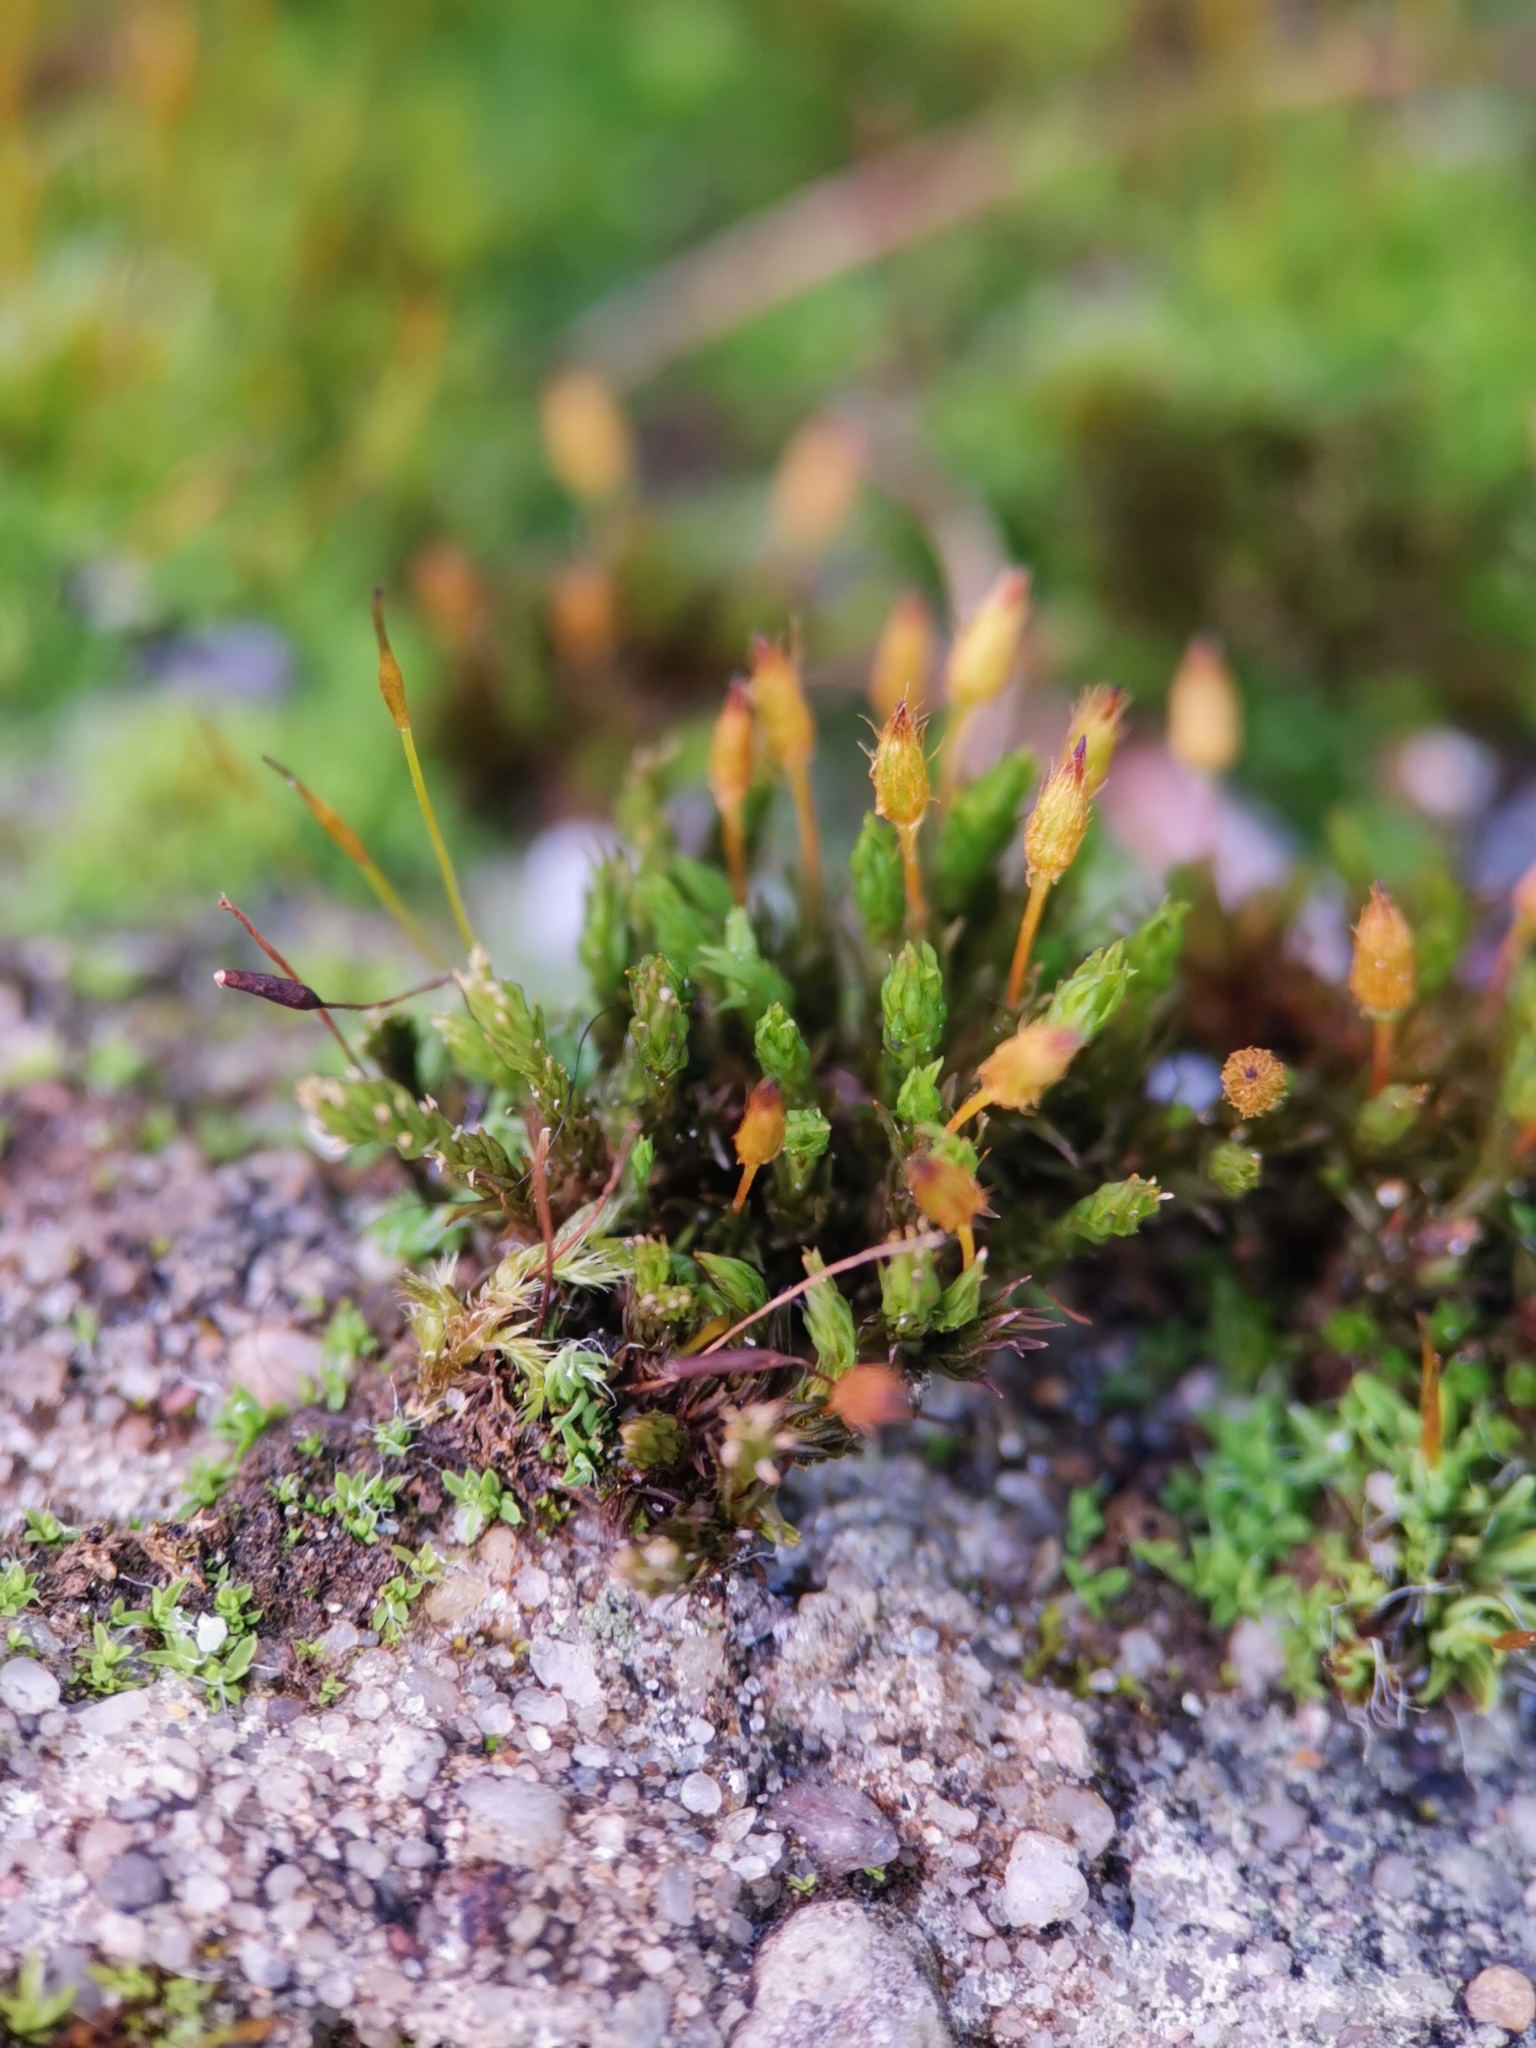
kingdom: Plantae
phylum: Bryophyta
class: Bryopsida
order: Orthotrichales
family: Orthotrichaceae
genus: Orthotrichum
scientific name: Orthotrichum anomalum
